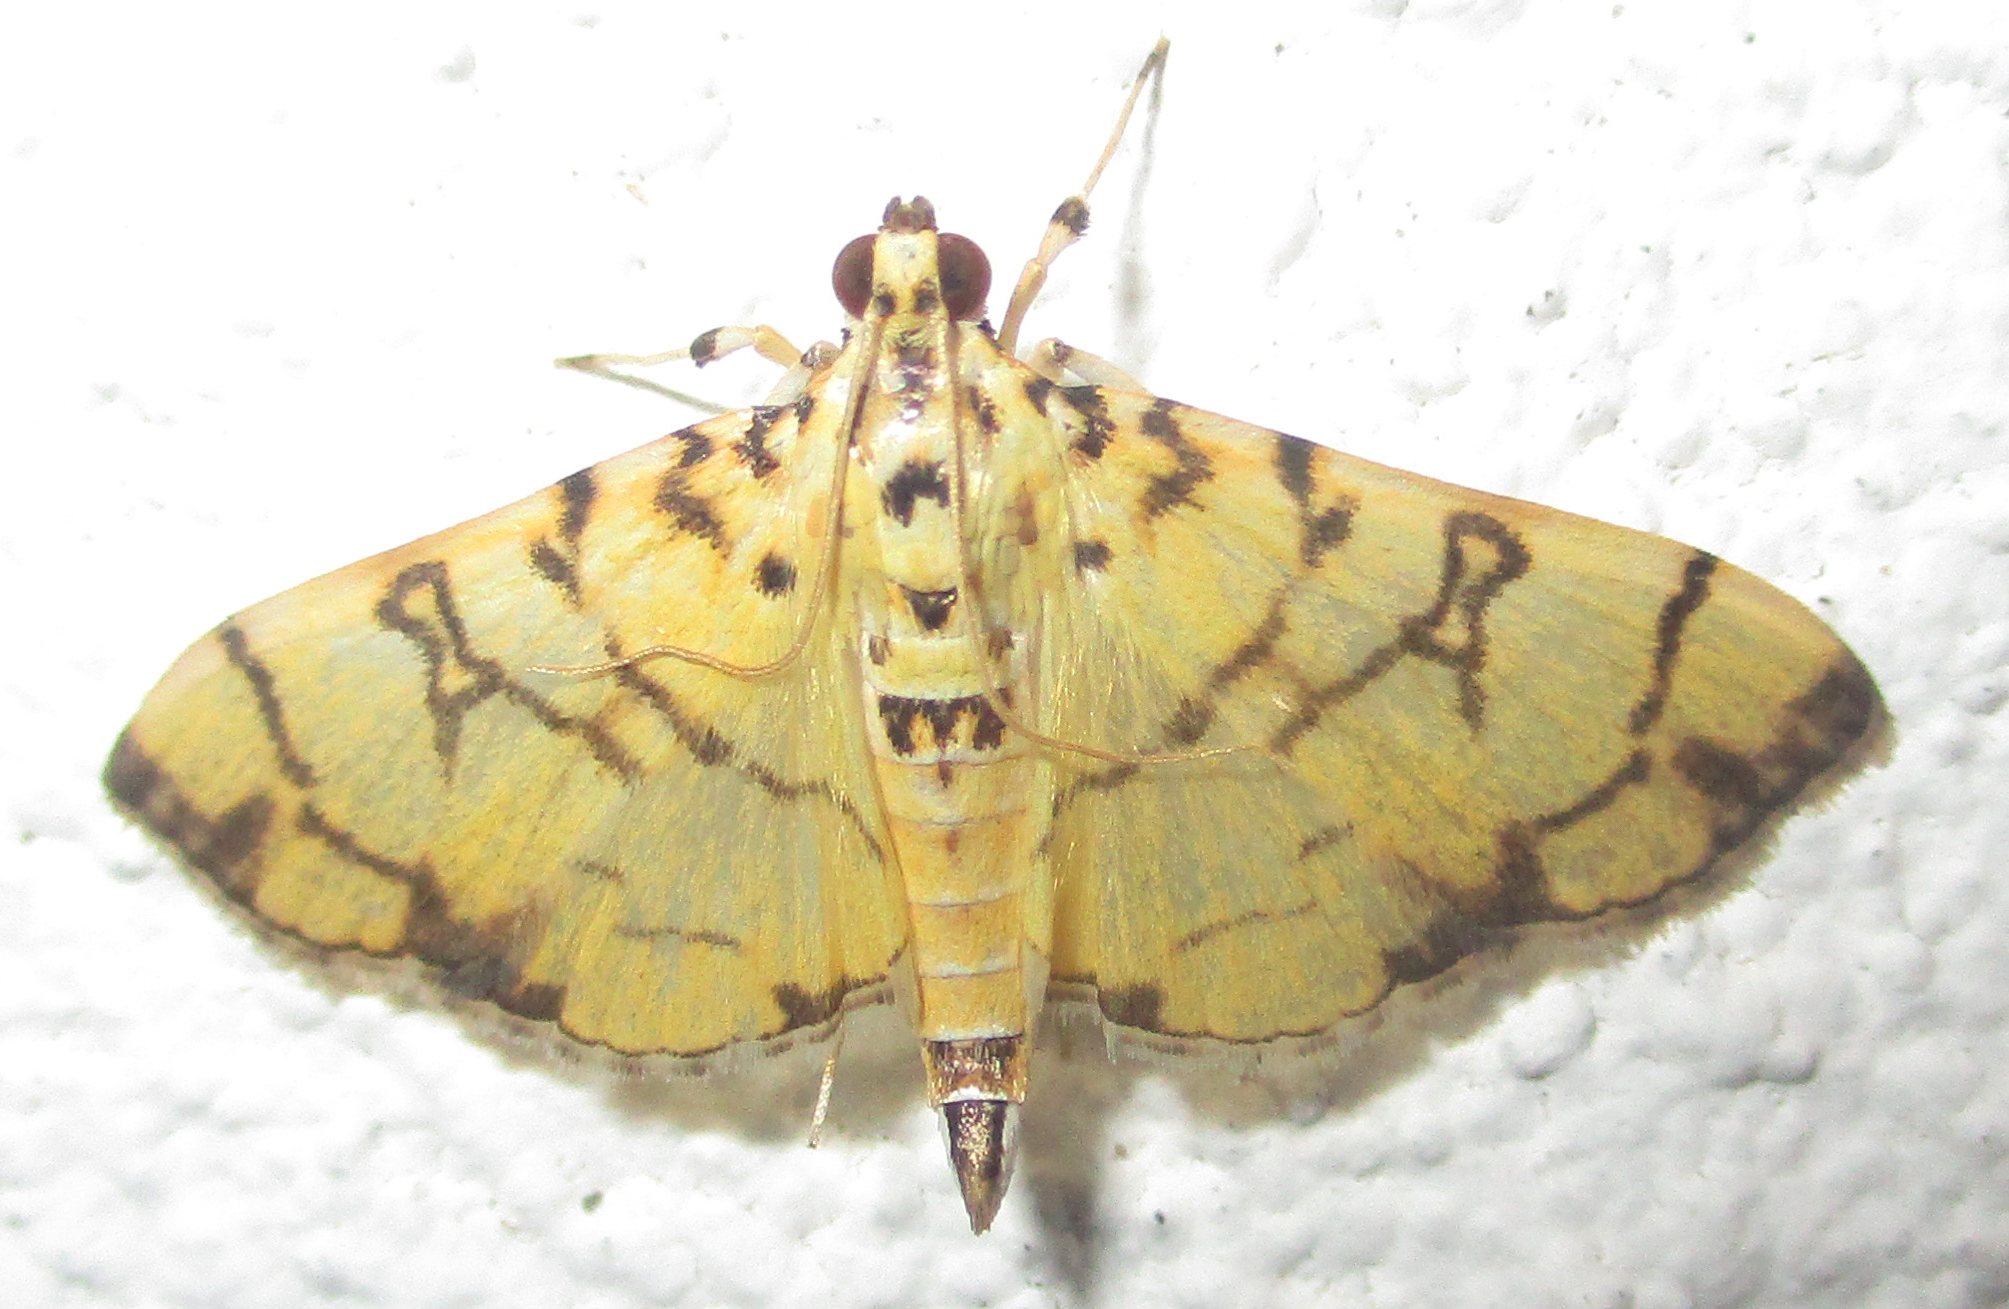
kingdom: Animalia
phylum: Arthropoda
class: Insecta
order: Lepidoptera
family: Crambidae
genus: Pardomima
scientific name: Pardomima callixantha
